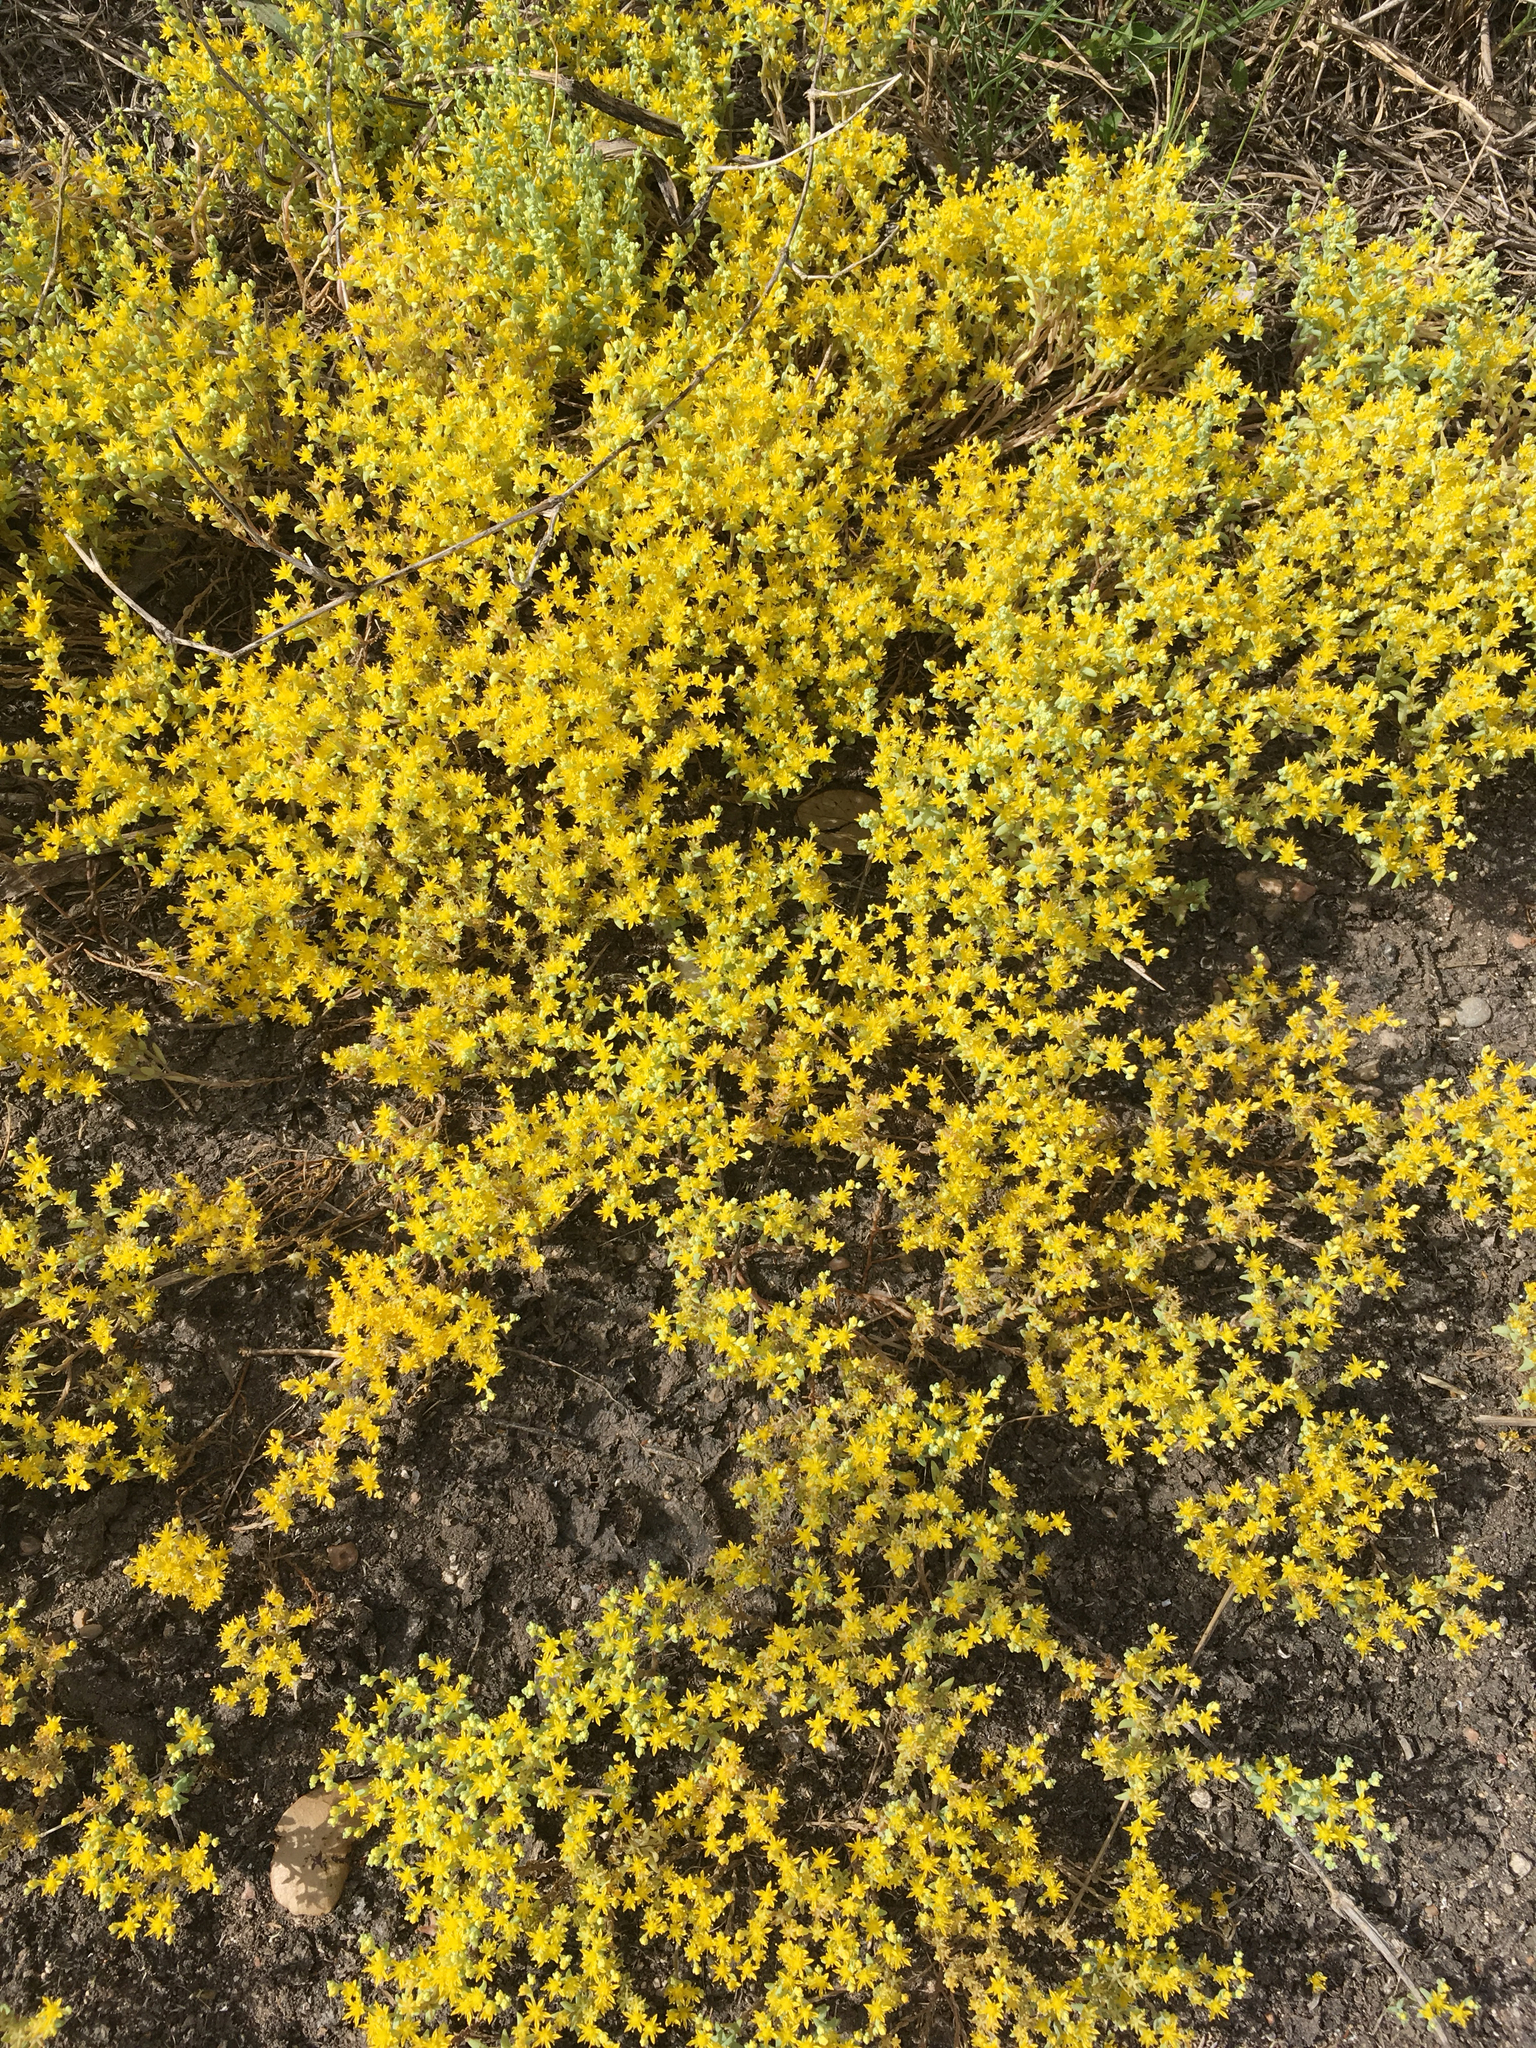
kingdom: Plantae
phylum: Tracheophyta
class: Magnoliopsida
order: Saxifragales
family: Crassulaceae
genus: Sedum
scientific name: Sedum nuttallii
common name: Yellow stonecrop
